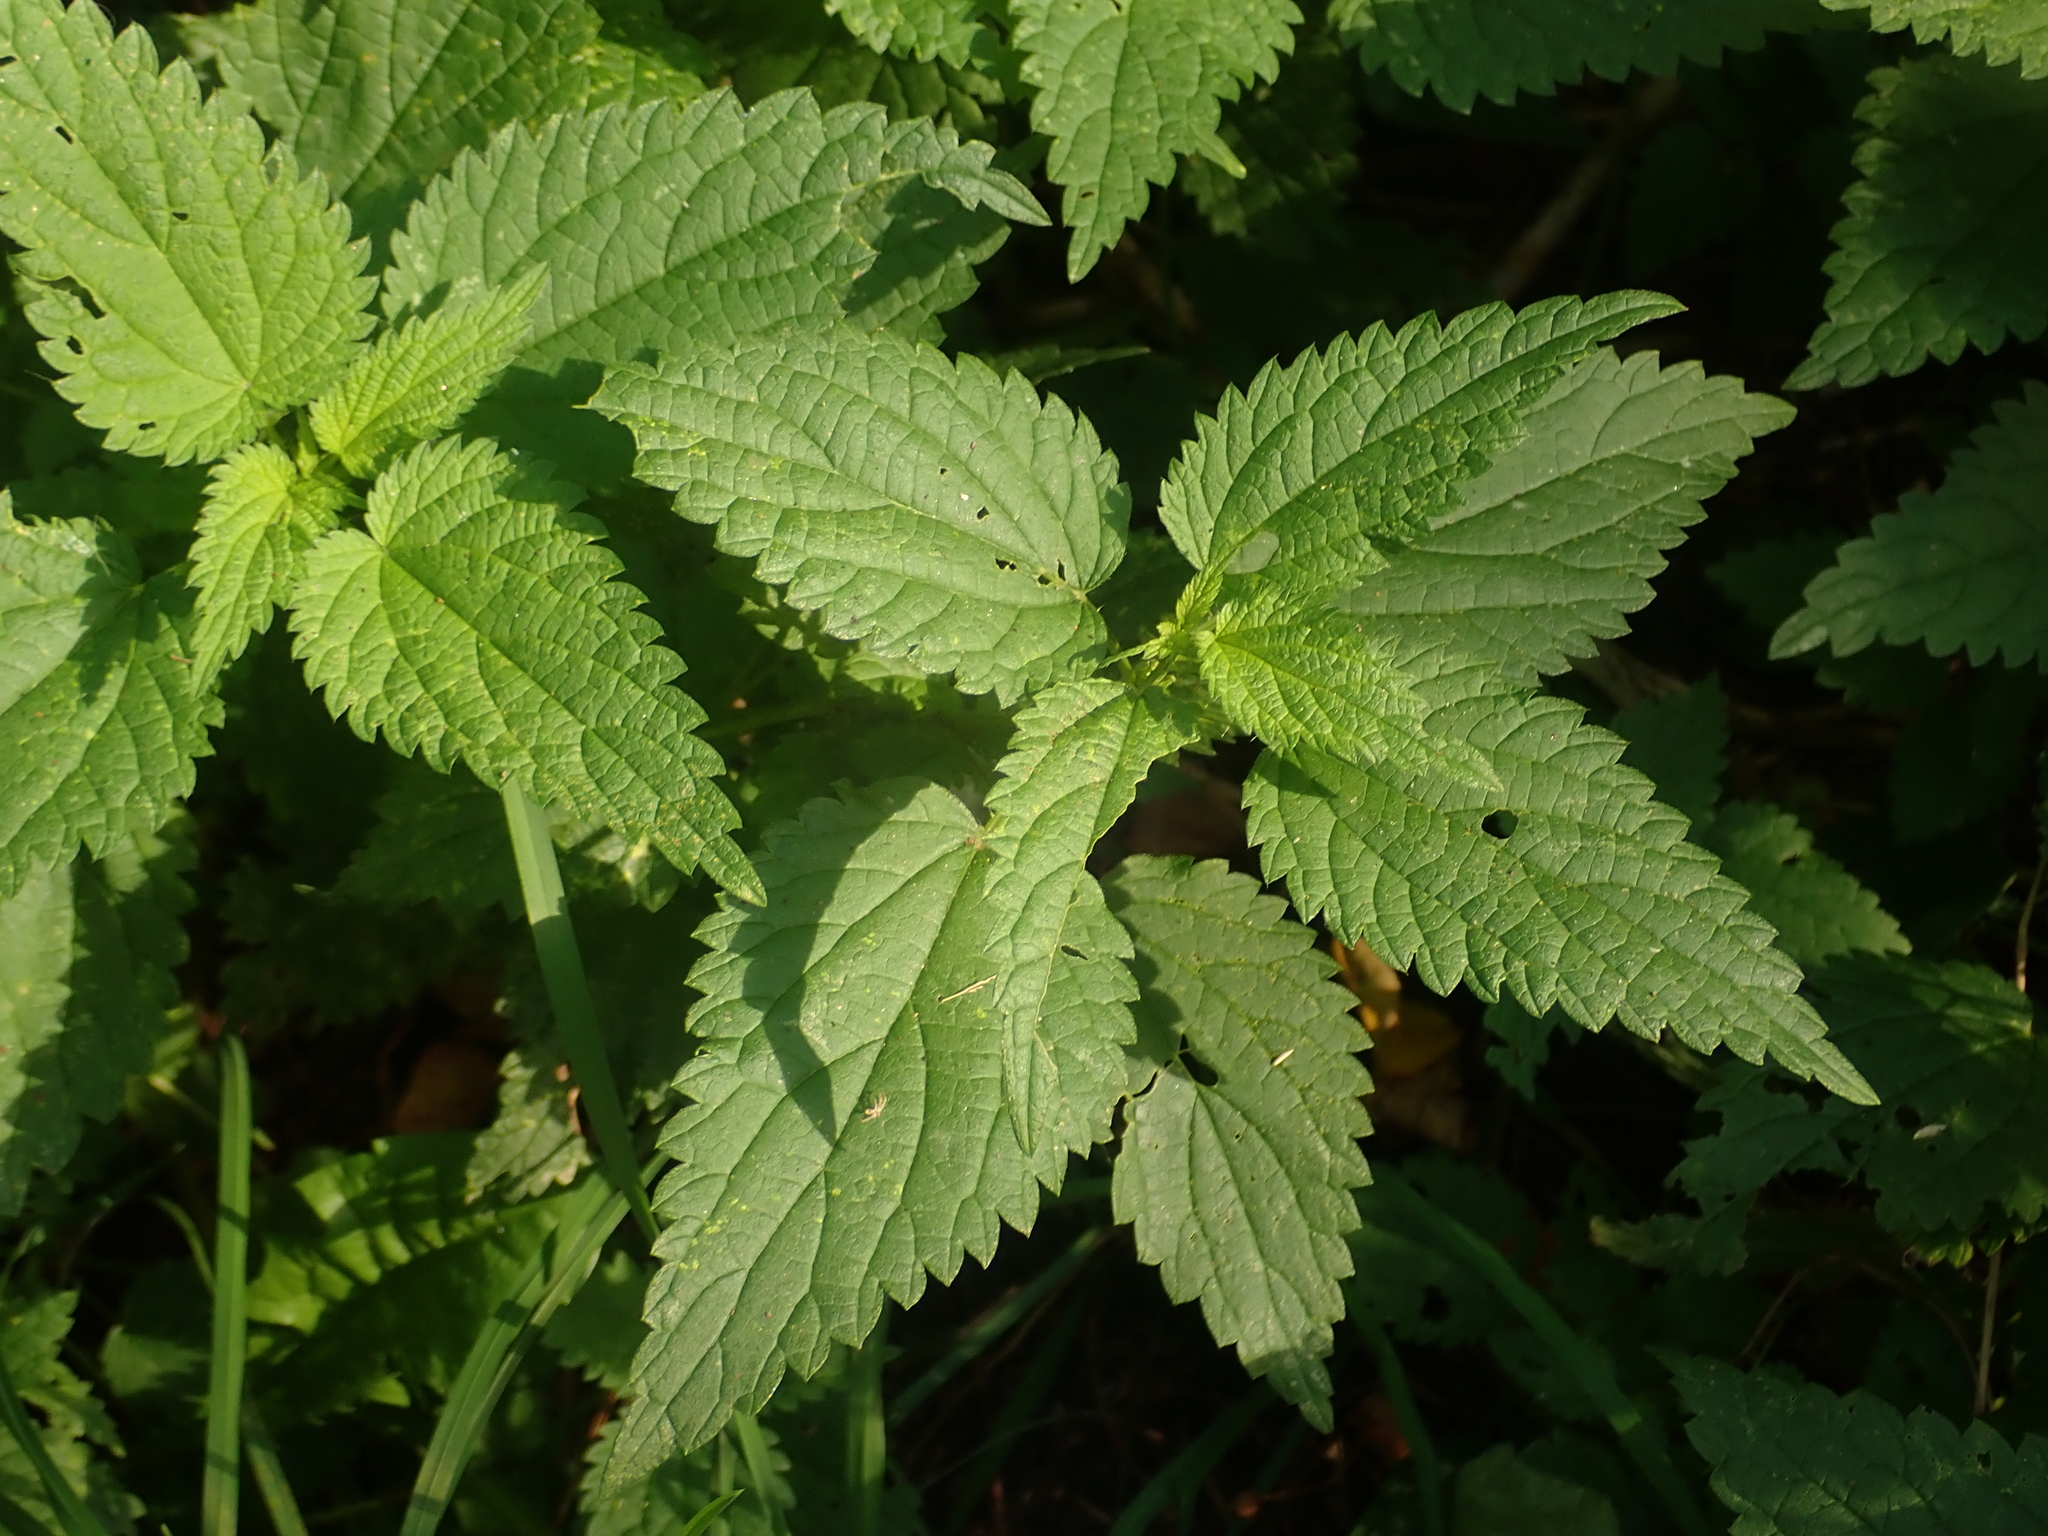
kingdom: Plantae
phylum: Tracheophyta
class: Magnoliopsida
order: Rosales
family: Urticaceae
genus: Urtica
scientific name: Urtica dioica
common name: Common nettle
